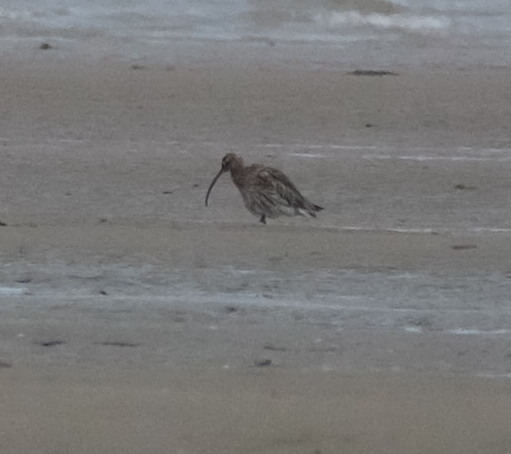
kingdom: Animalia
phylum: Chordata
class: Aves
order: Charadriiformes
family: Scolopacidae
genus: Numenius
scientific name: Numenius arquata
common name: Eurasian curlew
